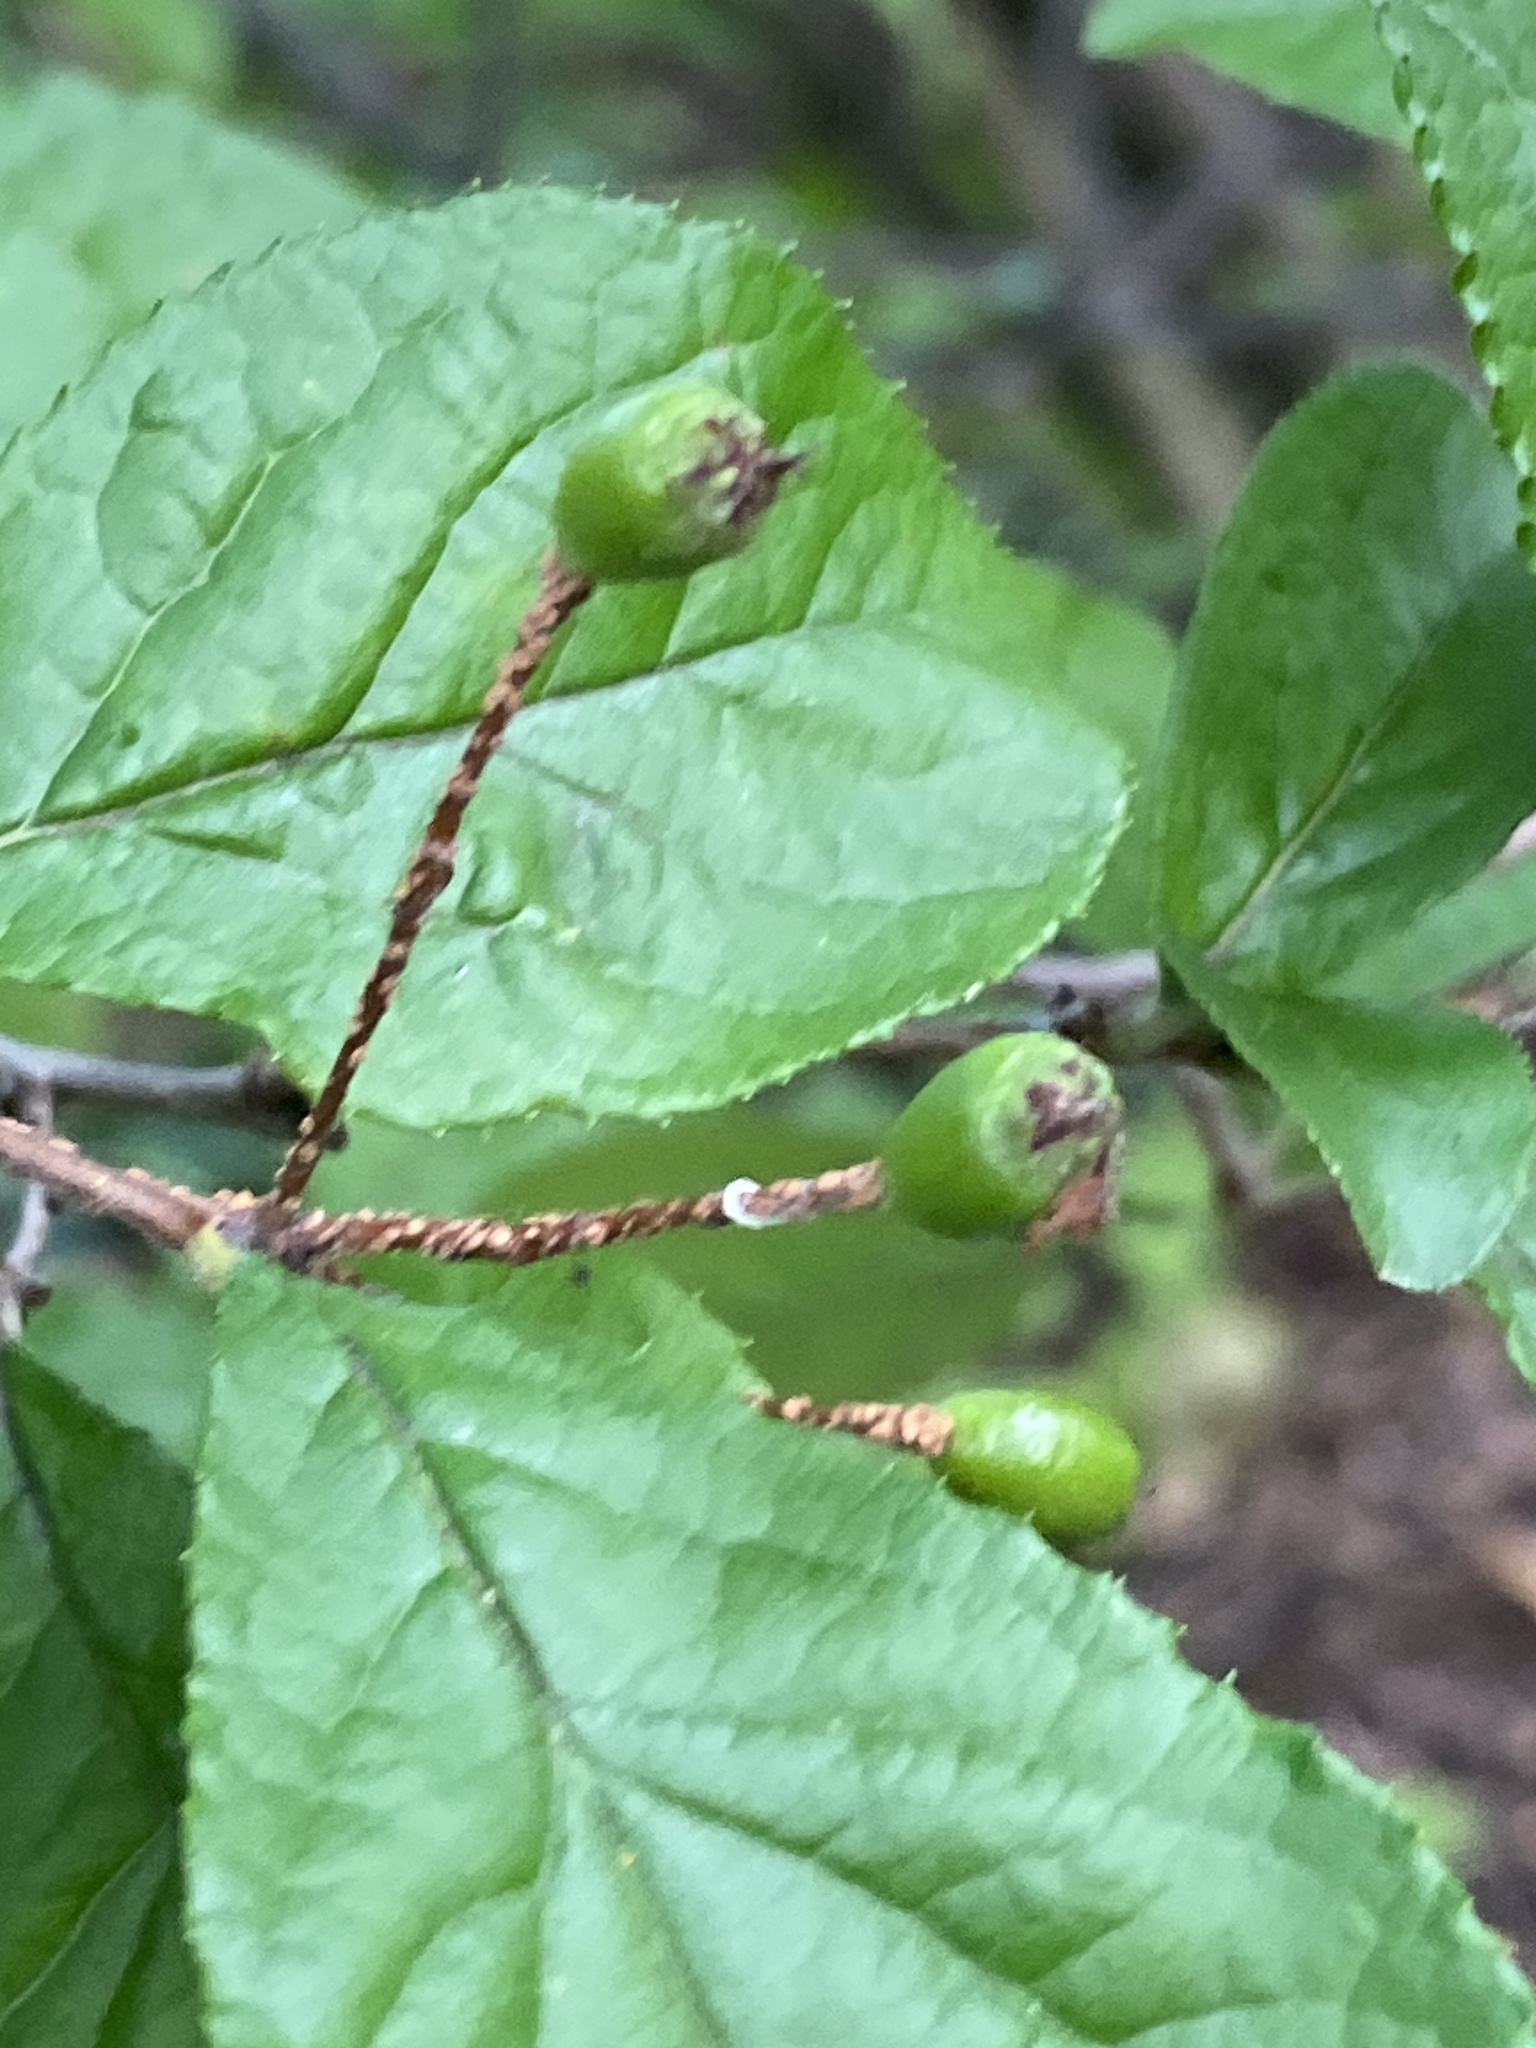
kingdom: Plantae
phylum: Tracheophyta
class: Magnoliopsida
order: Rosales
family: Rosaceae
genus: Pourthiaea
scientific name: Pourthiaea villosa
